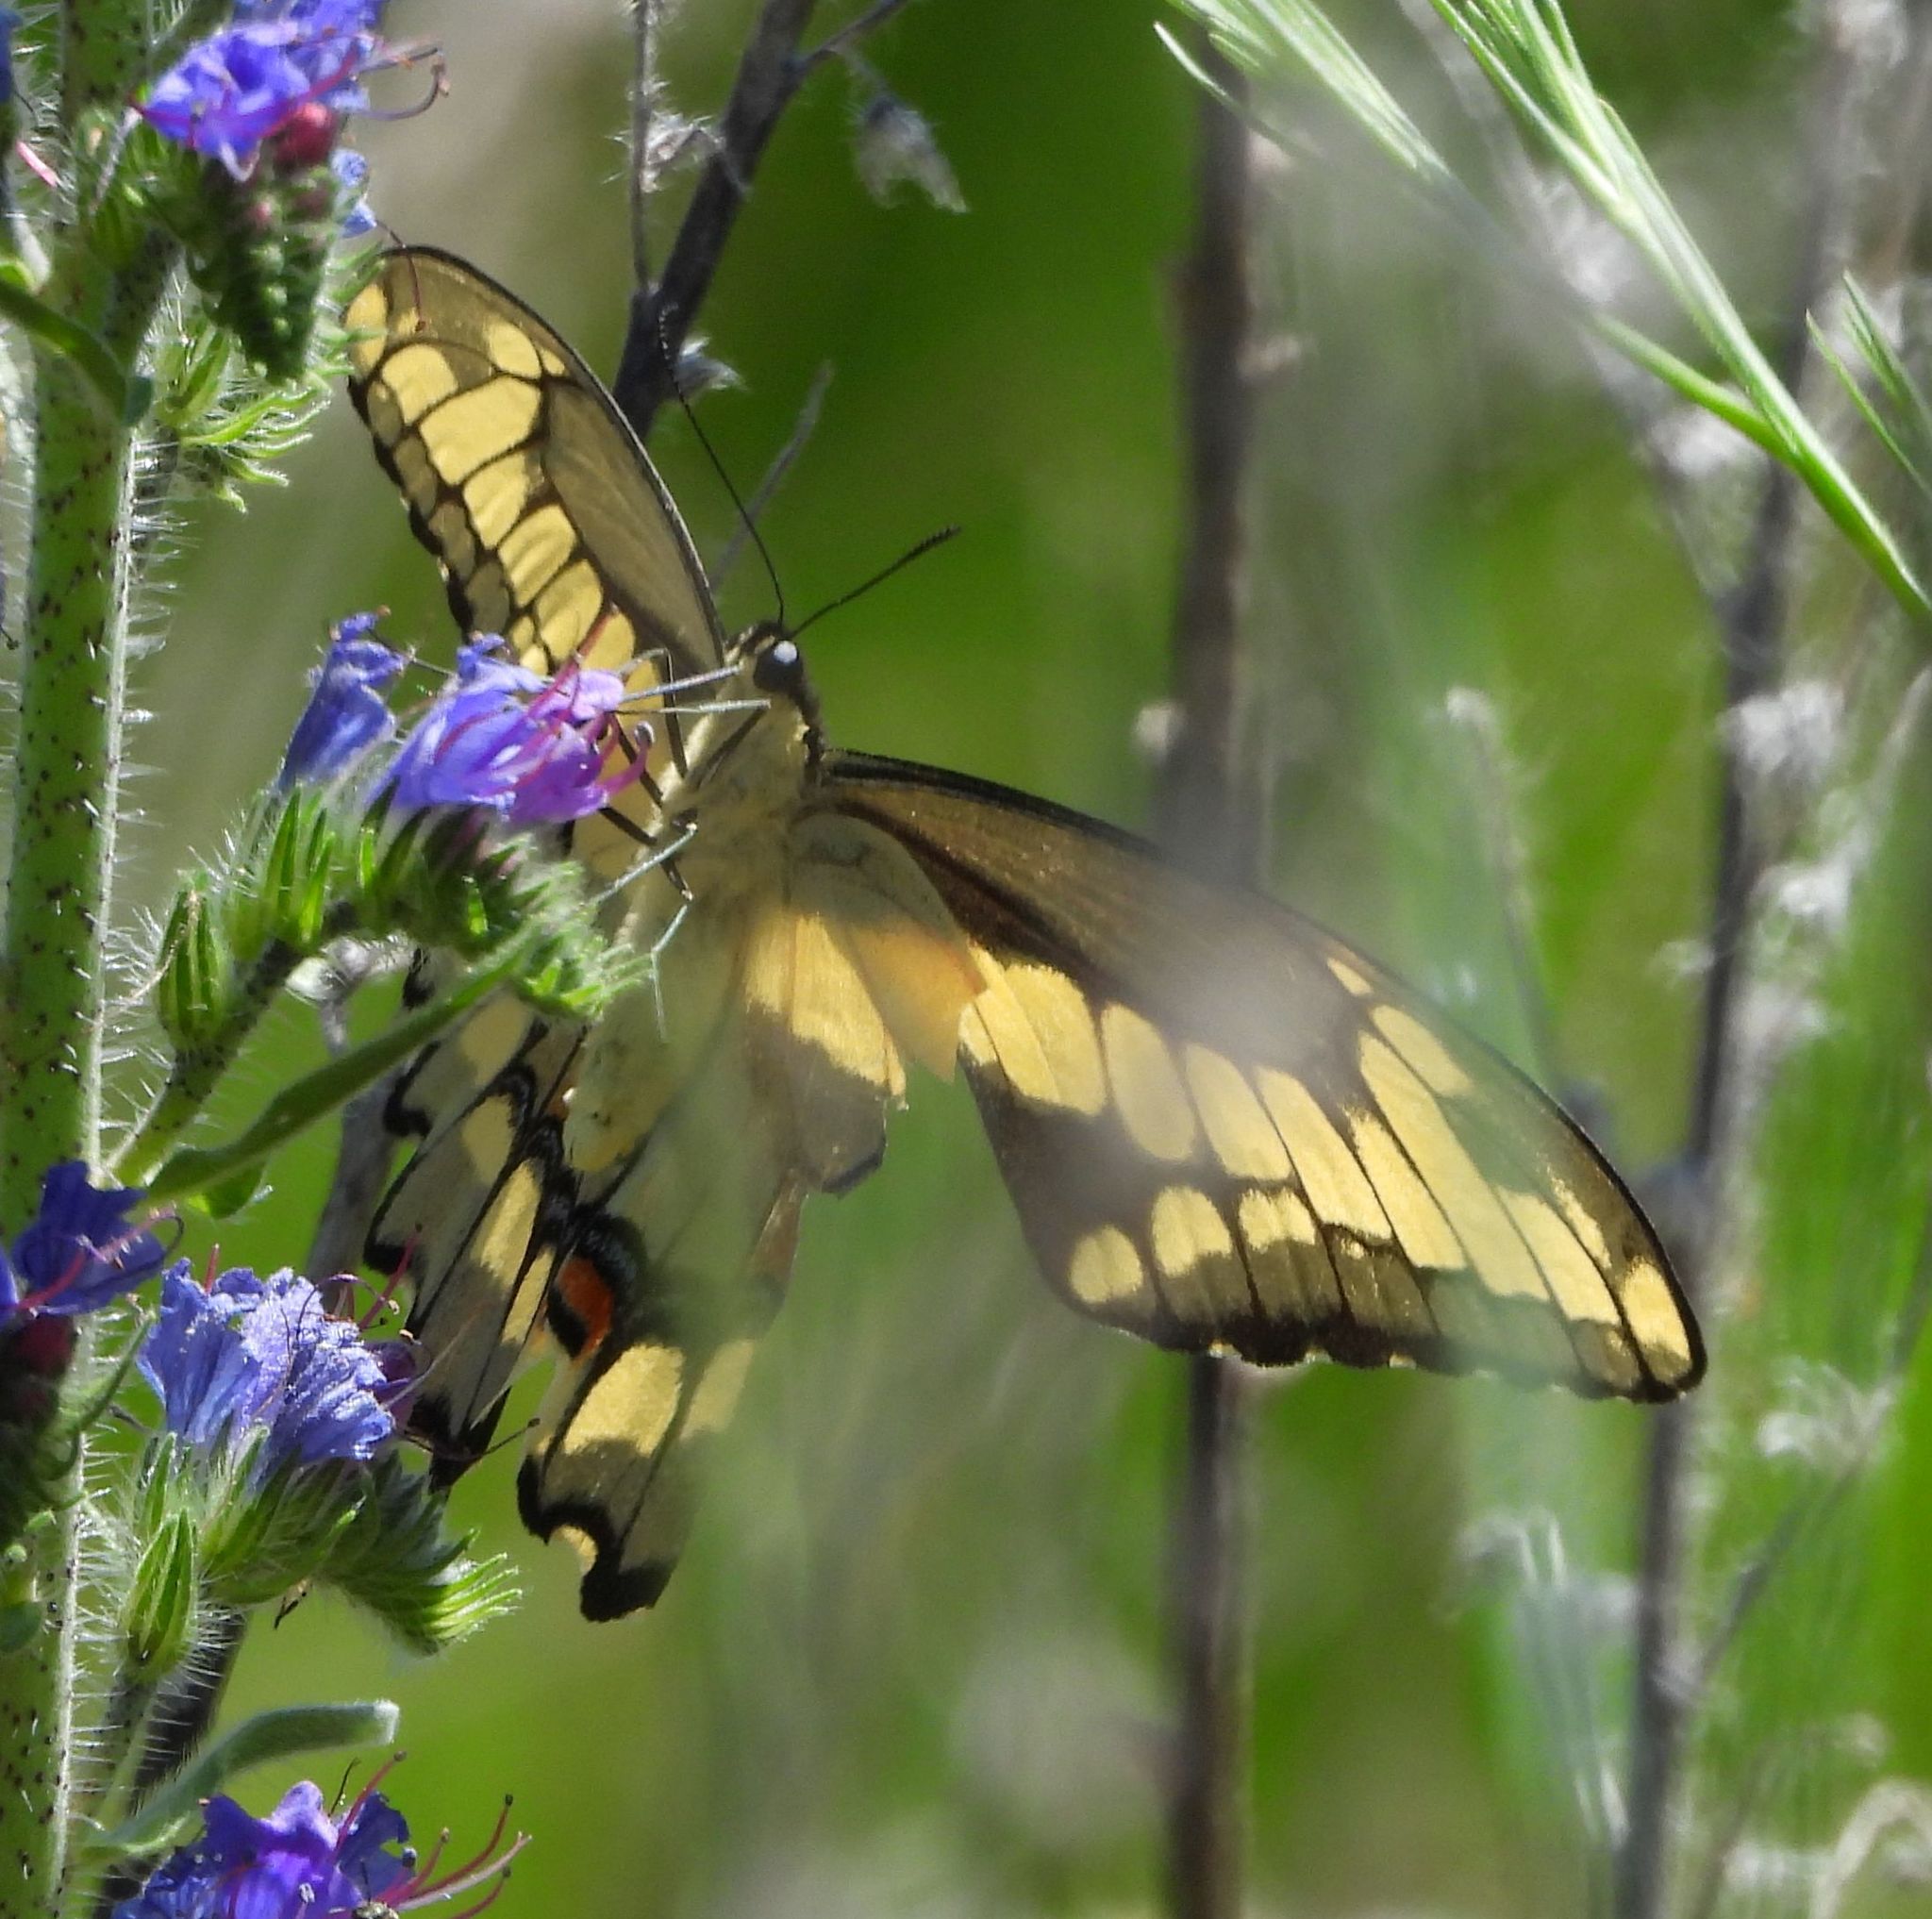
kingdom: Animalia
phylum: Arthropoda
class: Insecta
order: Lepidoptera
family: Papilionidae
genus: Papilio
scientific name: Papilio cresphontes
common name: Giant swallowtail
